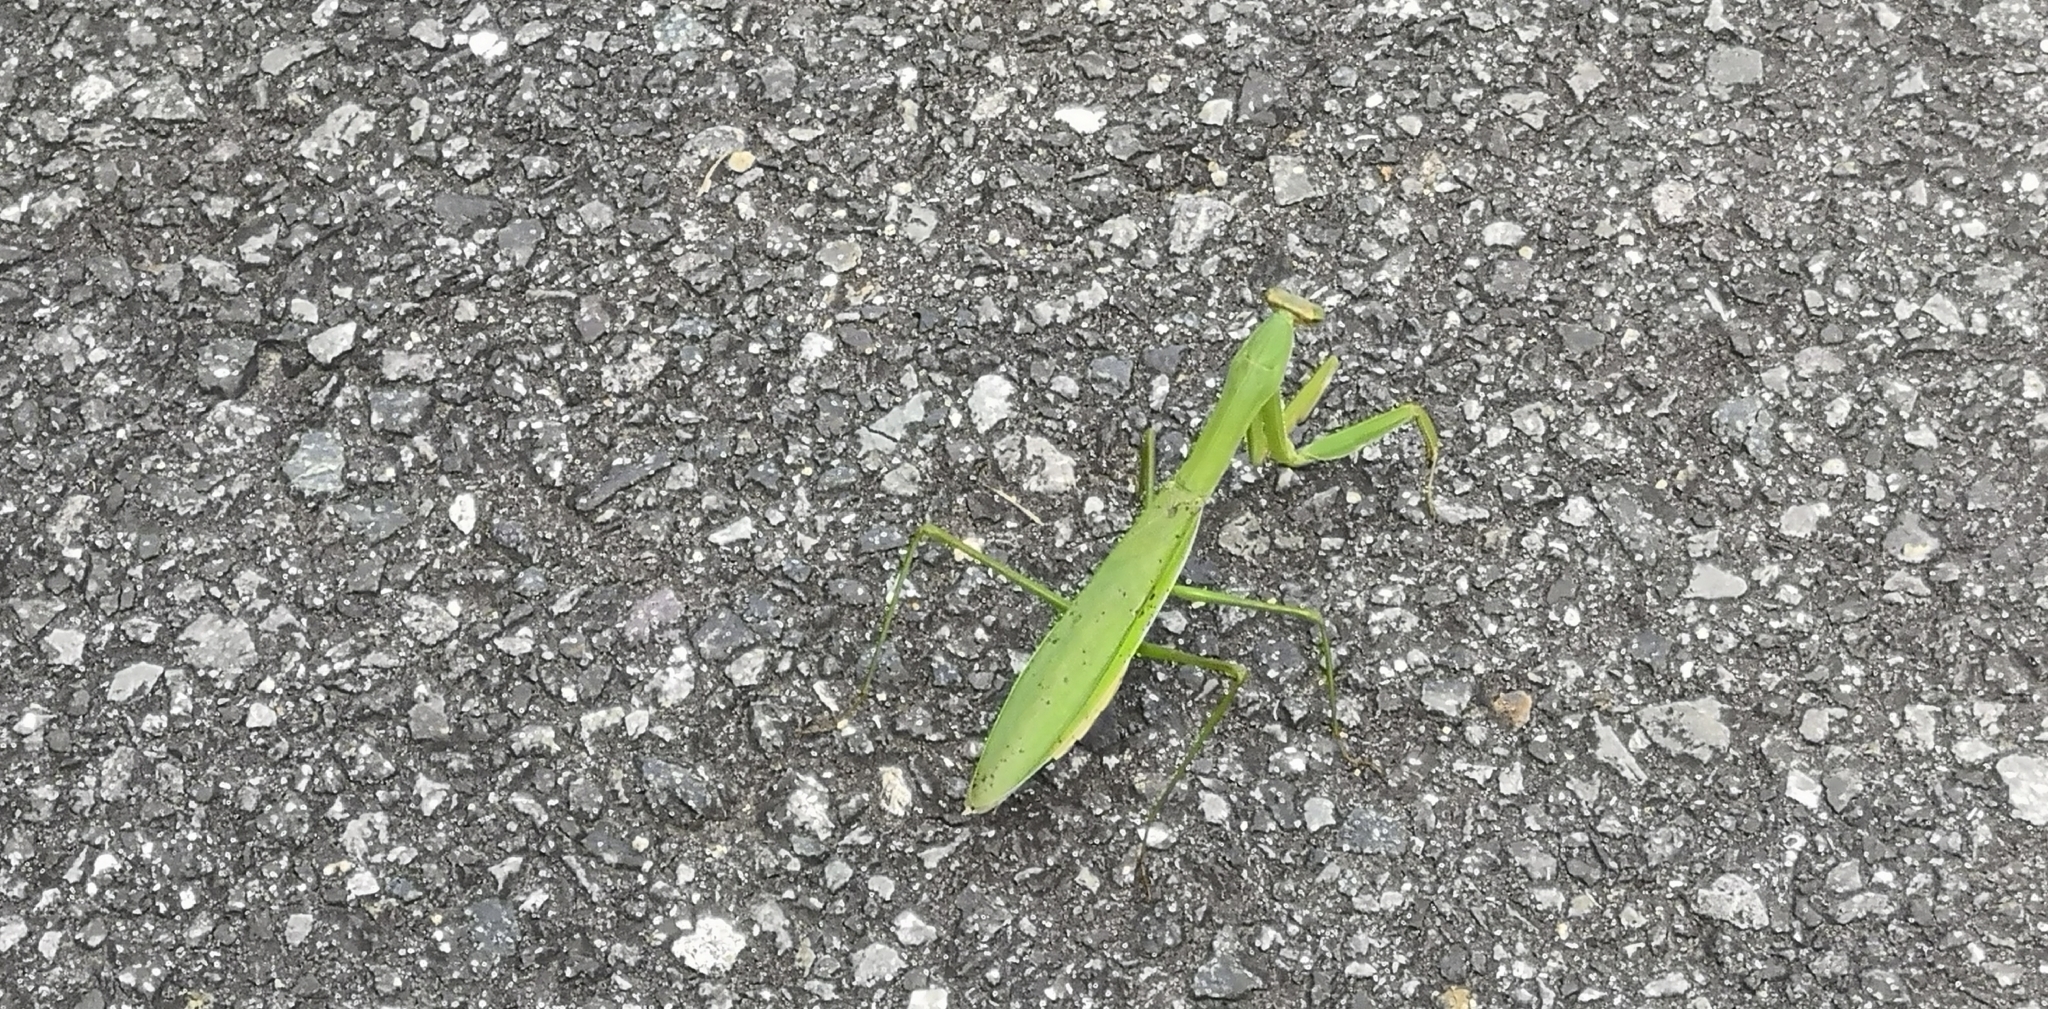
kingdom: Animalia
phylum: Arthropoda
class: Insecta
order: Mantodea
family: Mantidae
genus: Tenodera
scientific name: Tenodera sinensis
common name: Chinese mantis
